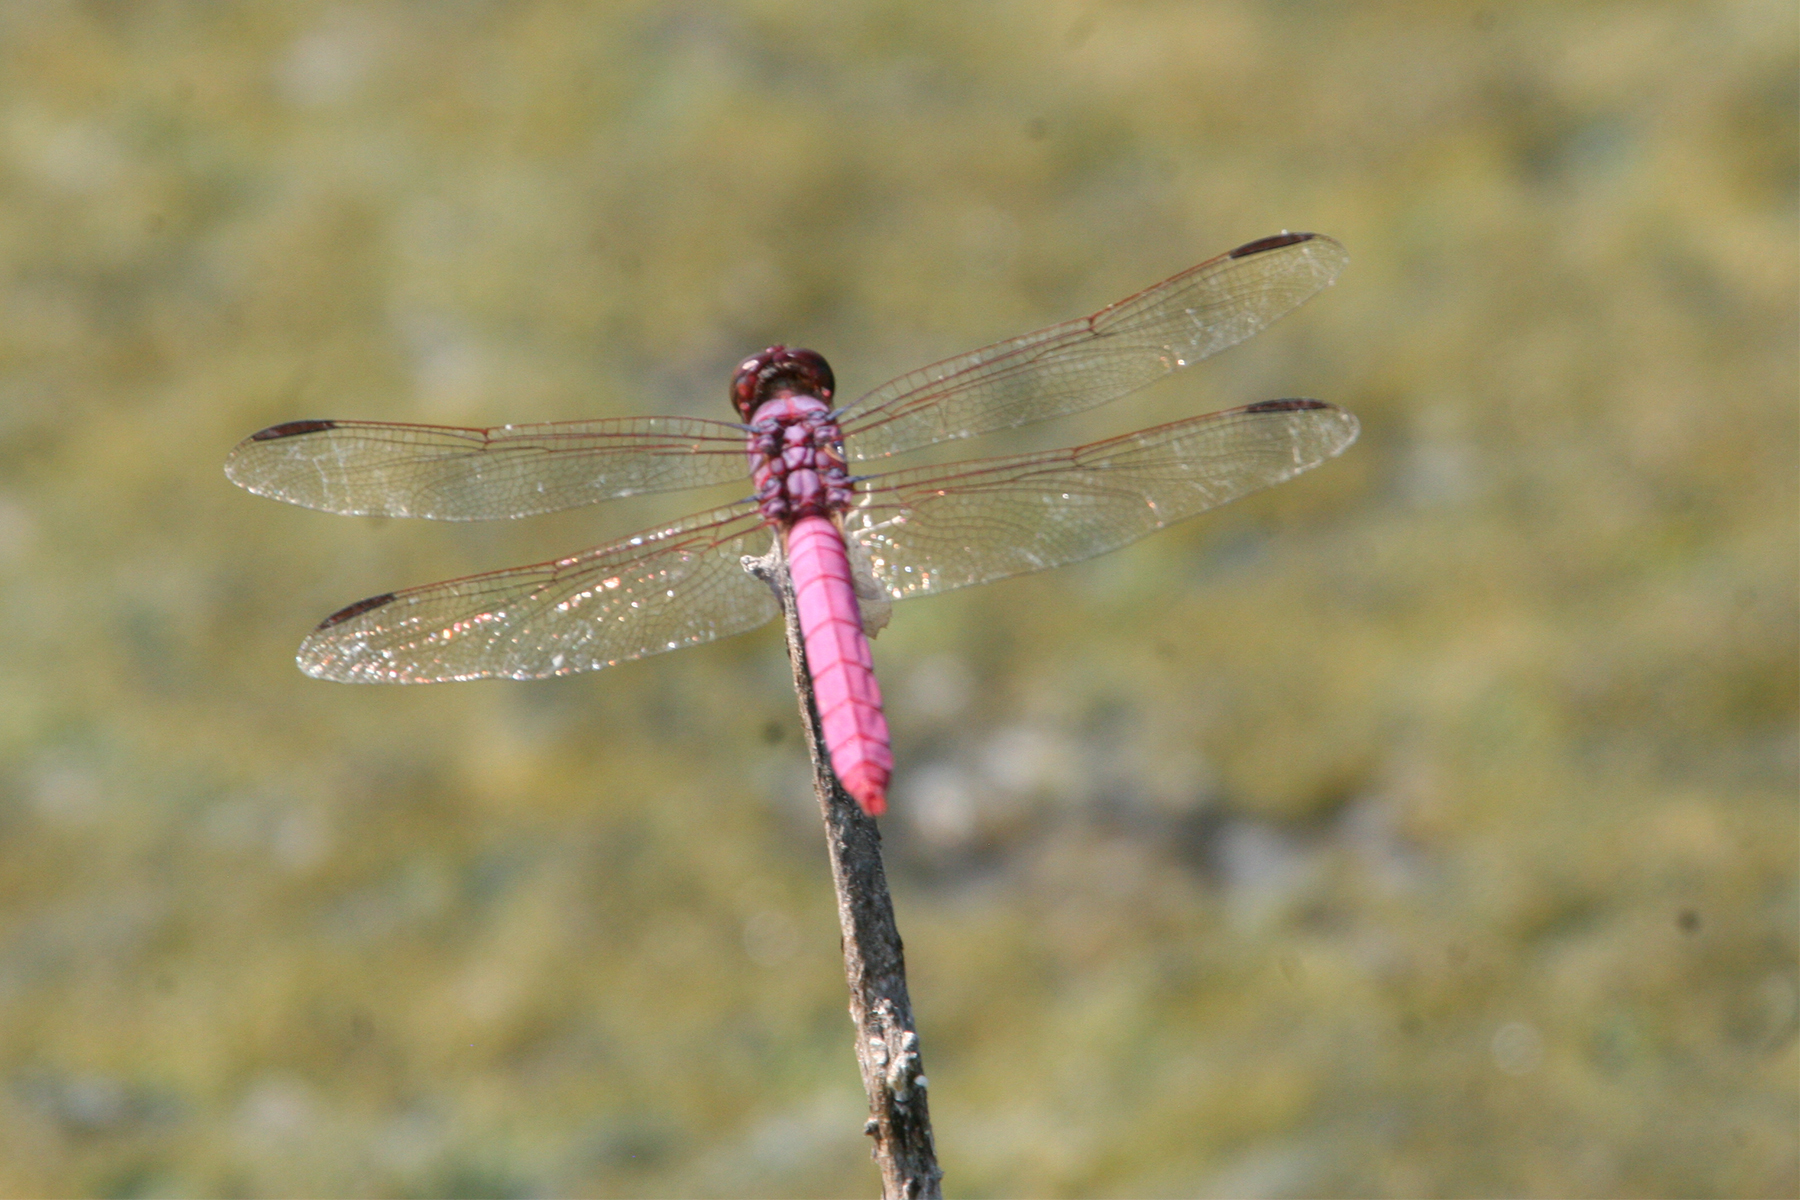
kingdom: Animalia
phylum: Arthropoda
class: Insecta
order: Odonata
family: Libellulidae
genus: Orthemis
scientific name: Orthemis ferruginea
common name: Roseate skimmer
